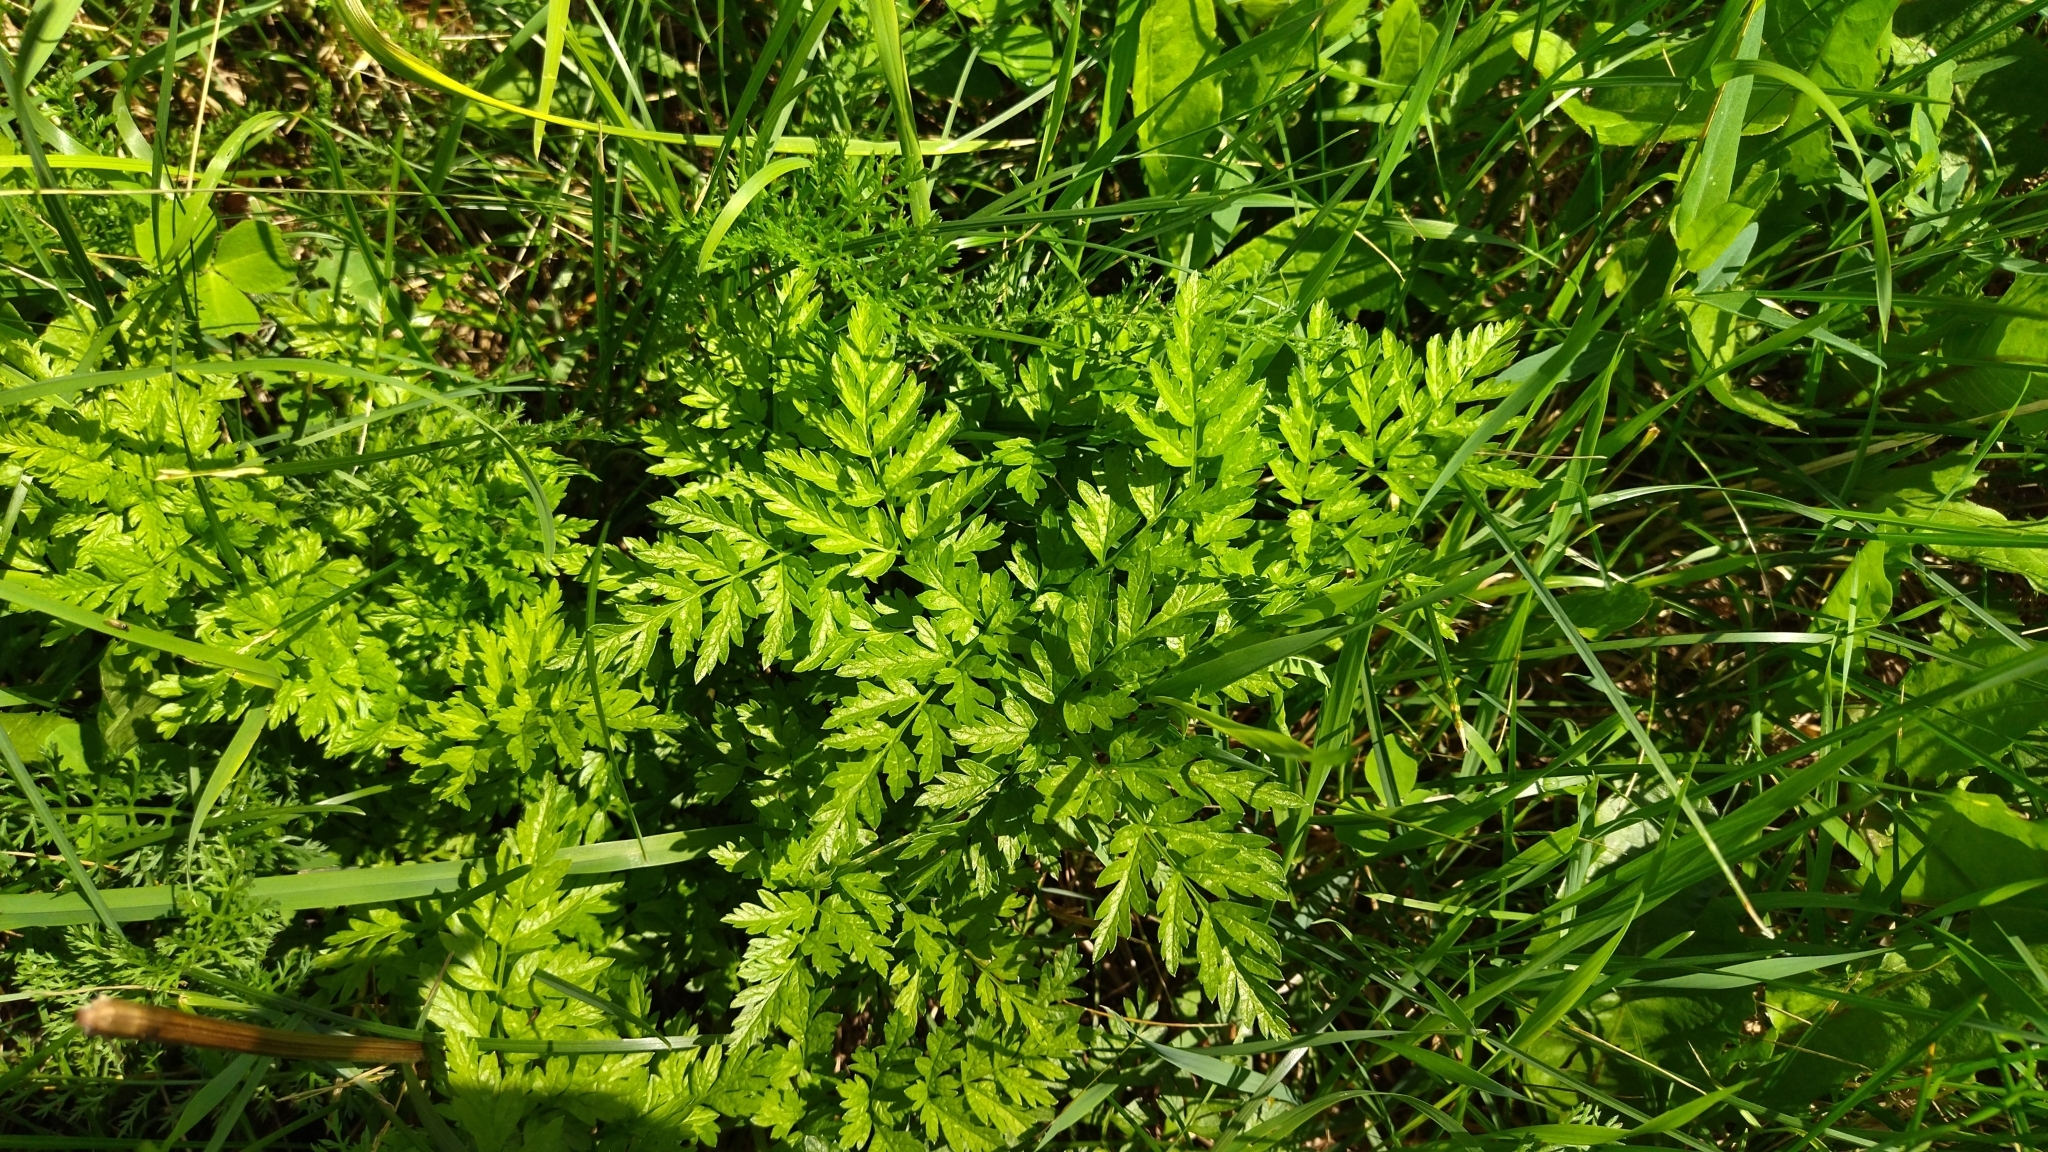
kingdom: Plantae
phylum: Tracheophyta
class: Magnoliopsida
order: Apiales
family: Apiaceae
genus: Anthriscus
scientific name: Anthriscus sylvestris
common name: Cow parsley
